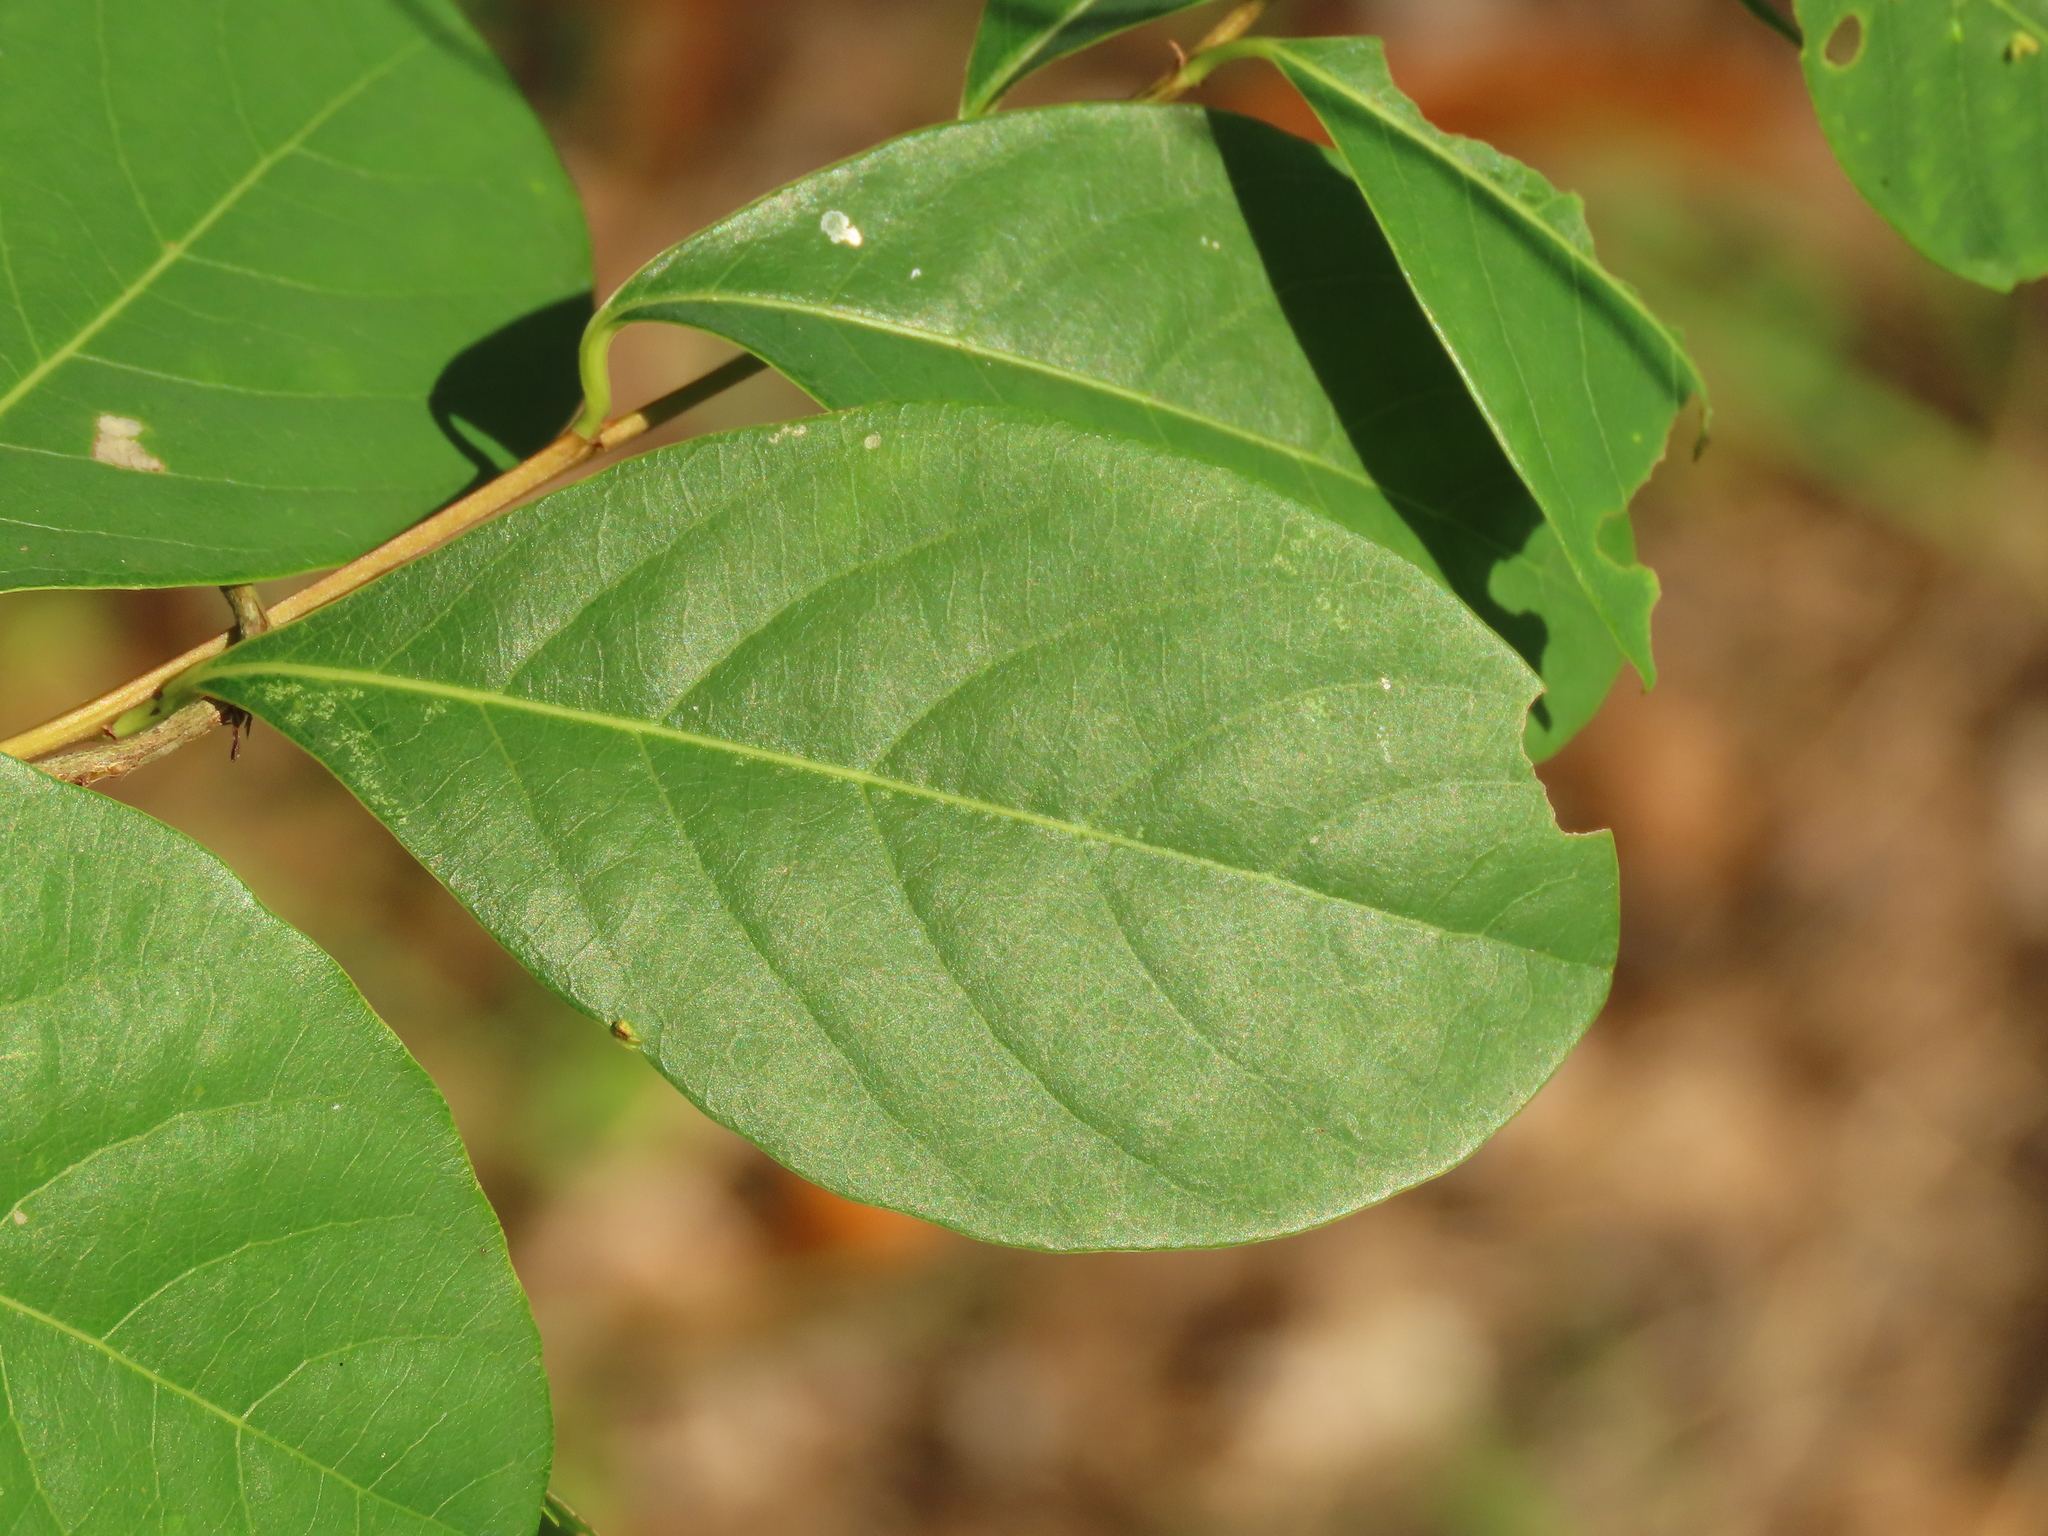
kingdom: Plantae
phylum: Tracheophyta
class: Magnoliopsida
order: Malpighiales
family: Phyllanthaceae
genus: Flueggea
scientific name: Flueggea virosa
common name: Common bushweed
